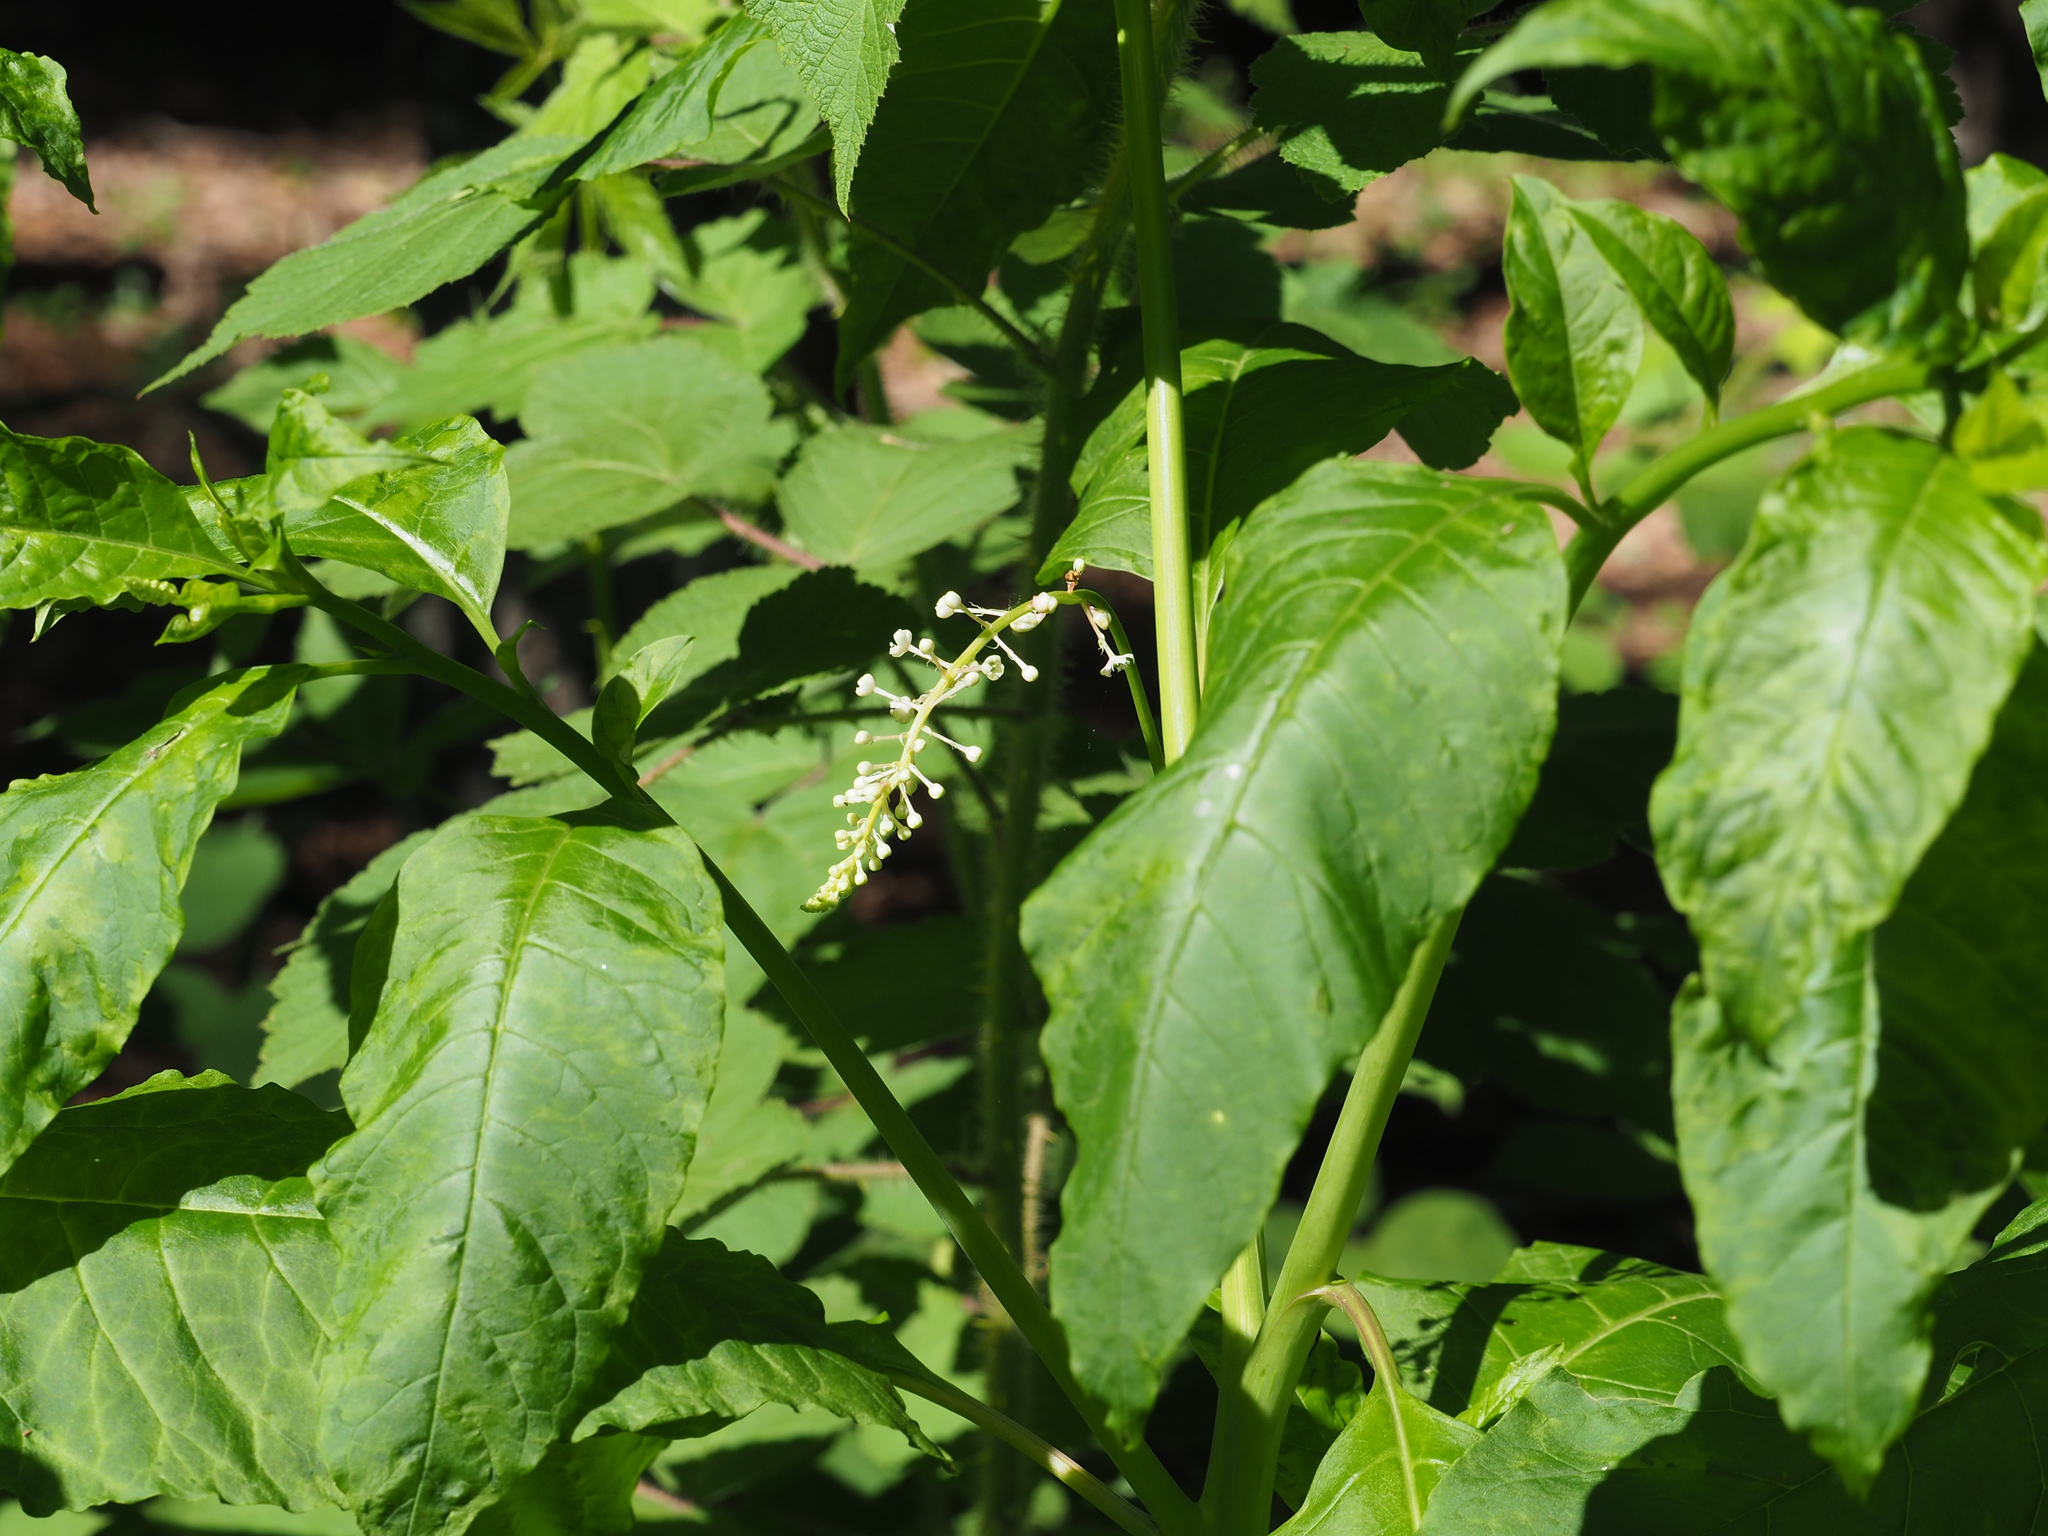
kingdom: Plantae
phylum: Tracheophyta
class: Magnoliopsida
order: Caryophyllales
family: Phytolaccaceae
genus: Phytolacca
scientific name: Phytolacca americana
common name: American pokeweed
